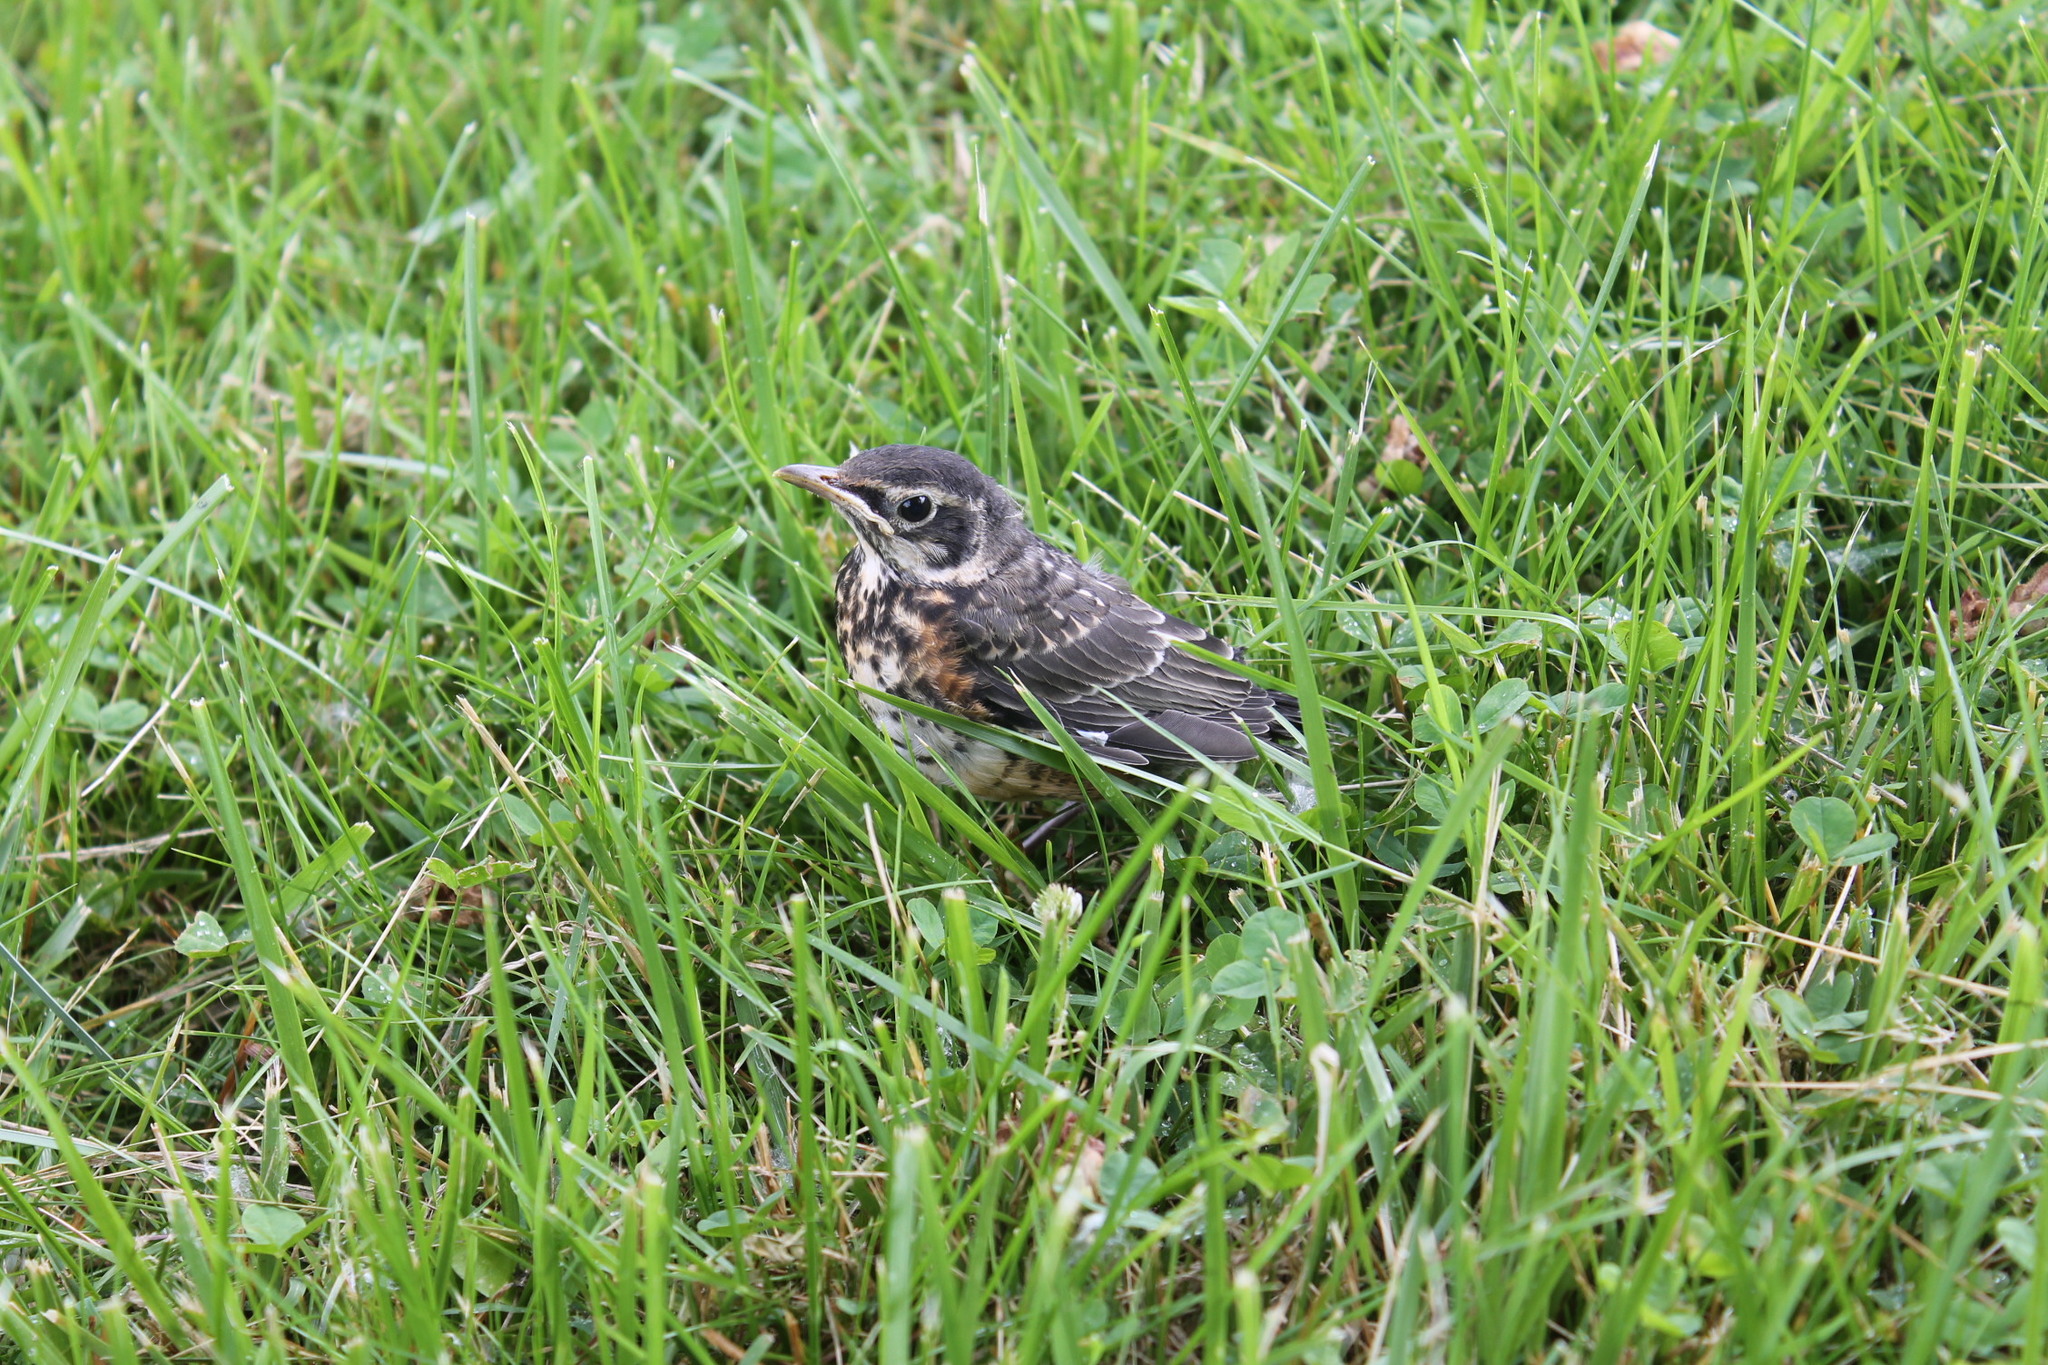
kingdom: Animalia
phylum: Chordata
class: Aves
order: Passeriformes
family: Turdidae
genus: Turdus
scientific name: Turdus migratorius
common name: American robin
